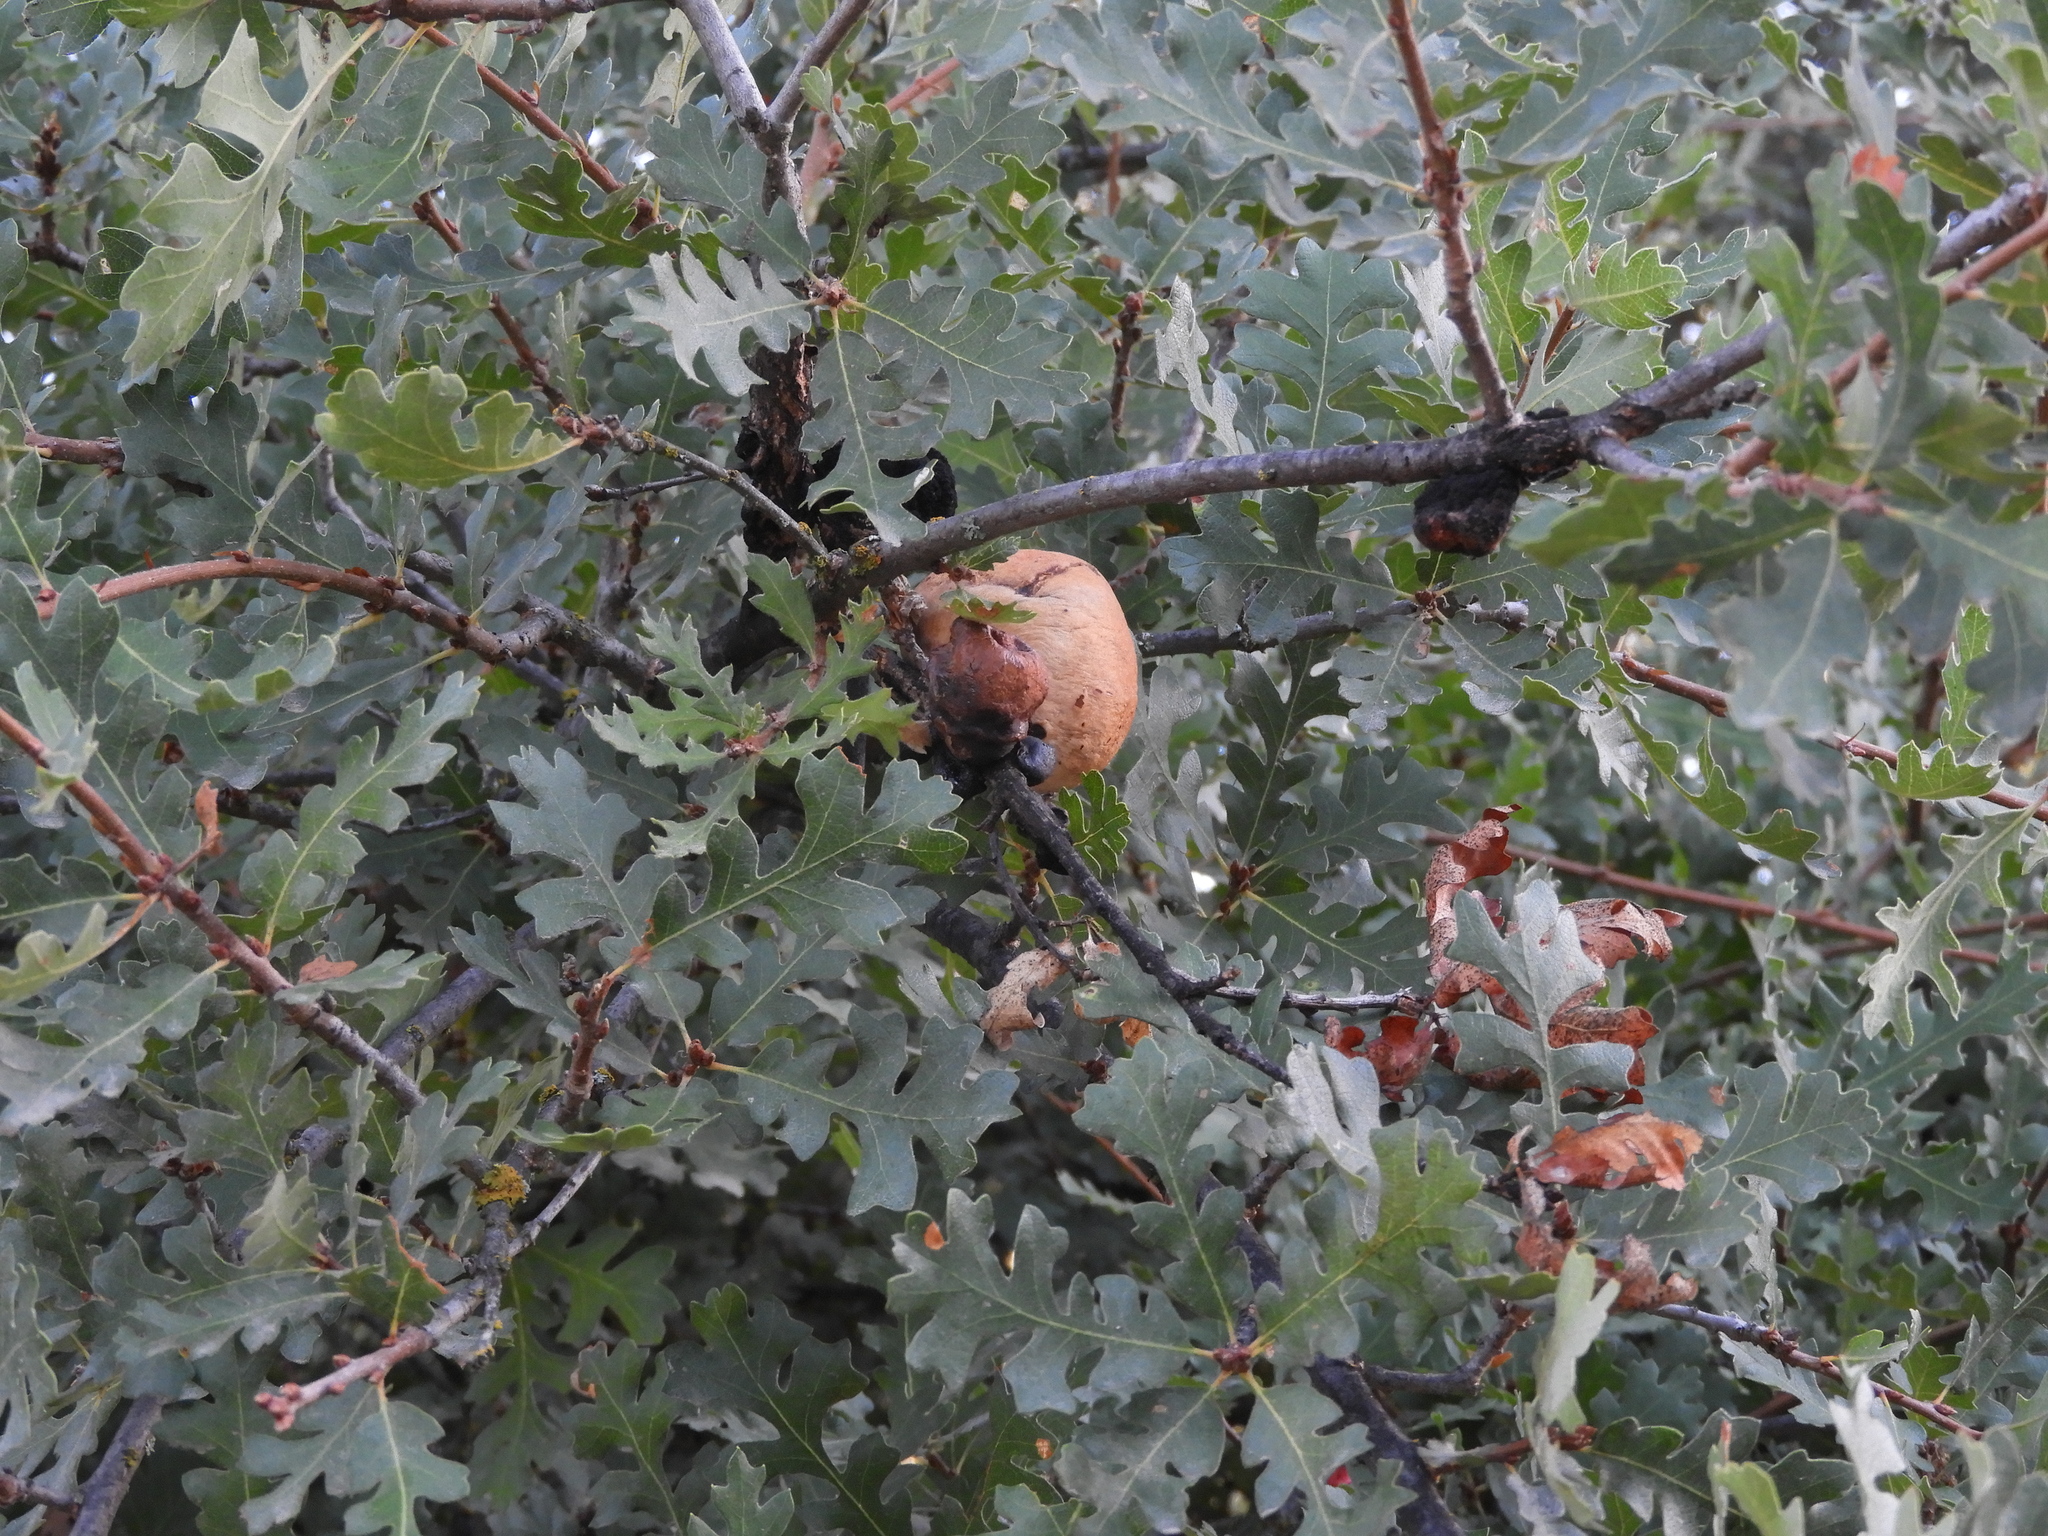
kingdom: Animalia
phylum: Arthropoda
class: Insecta
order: Hymenoptera
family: Cynipidae
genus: Andricus
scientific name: Andricus quercuscalifornicus
